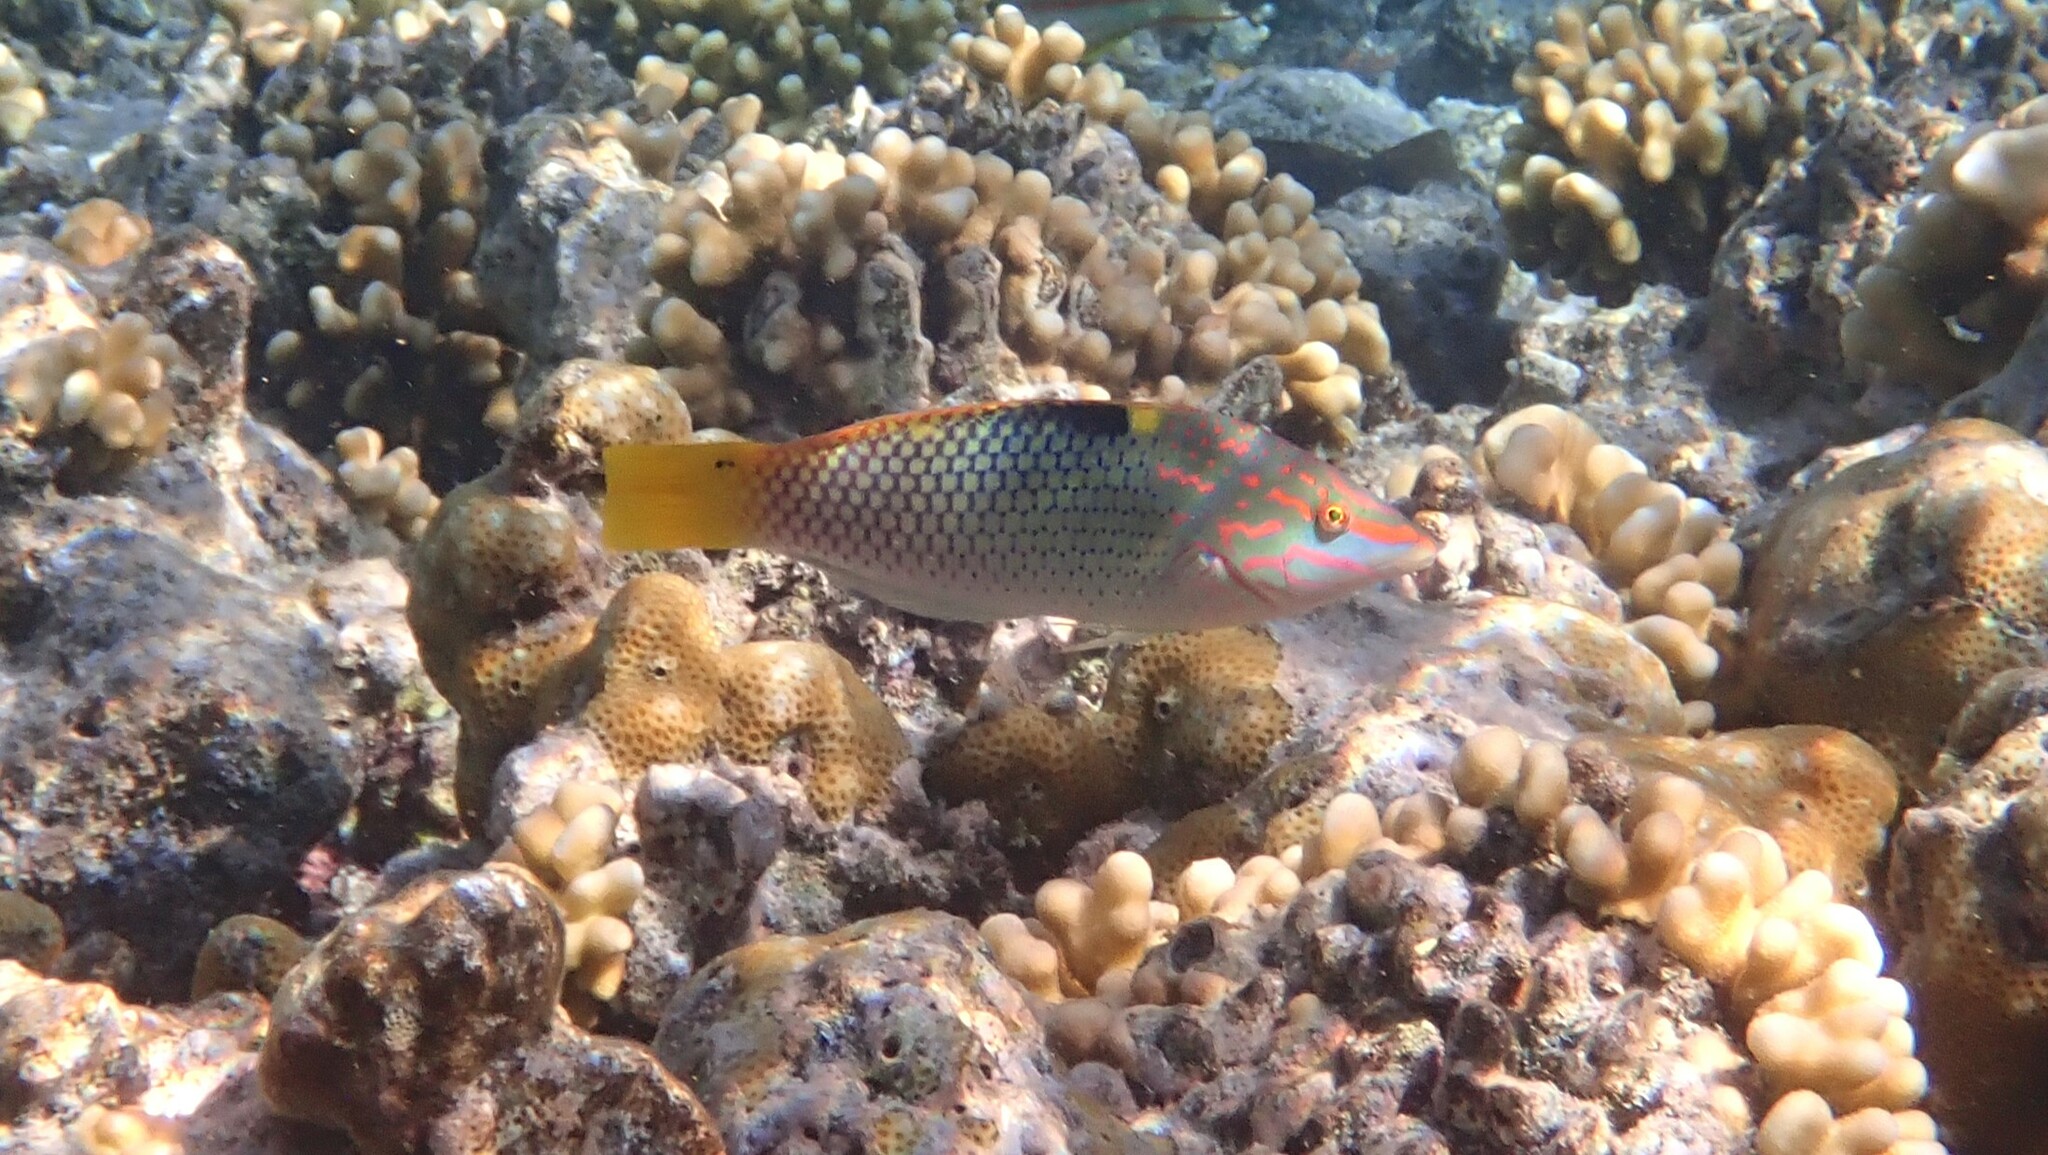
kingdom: Animalia
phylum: Chordata
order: Perciformes
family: Labridae
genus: Halichoeres
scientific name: Halichoeres hortulanus
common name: Checkerboard wrasse
